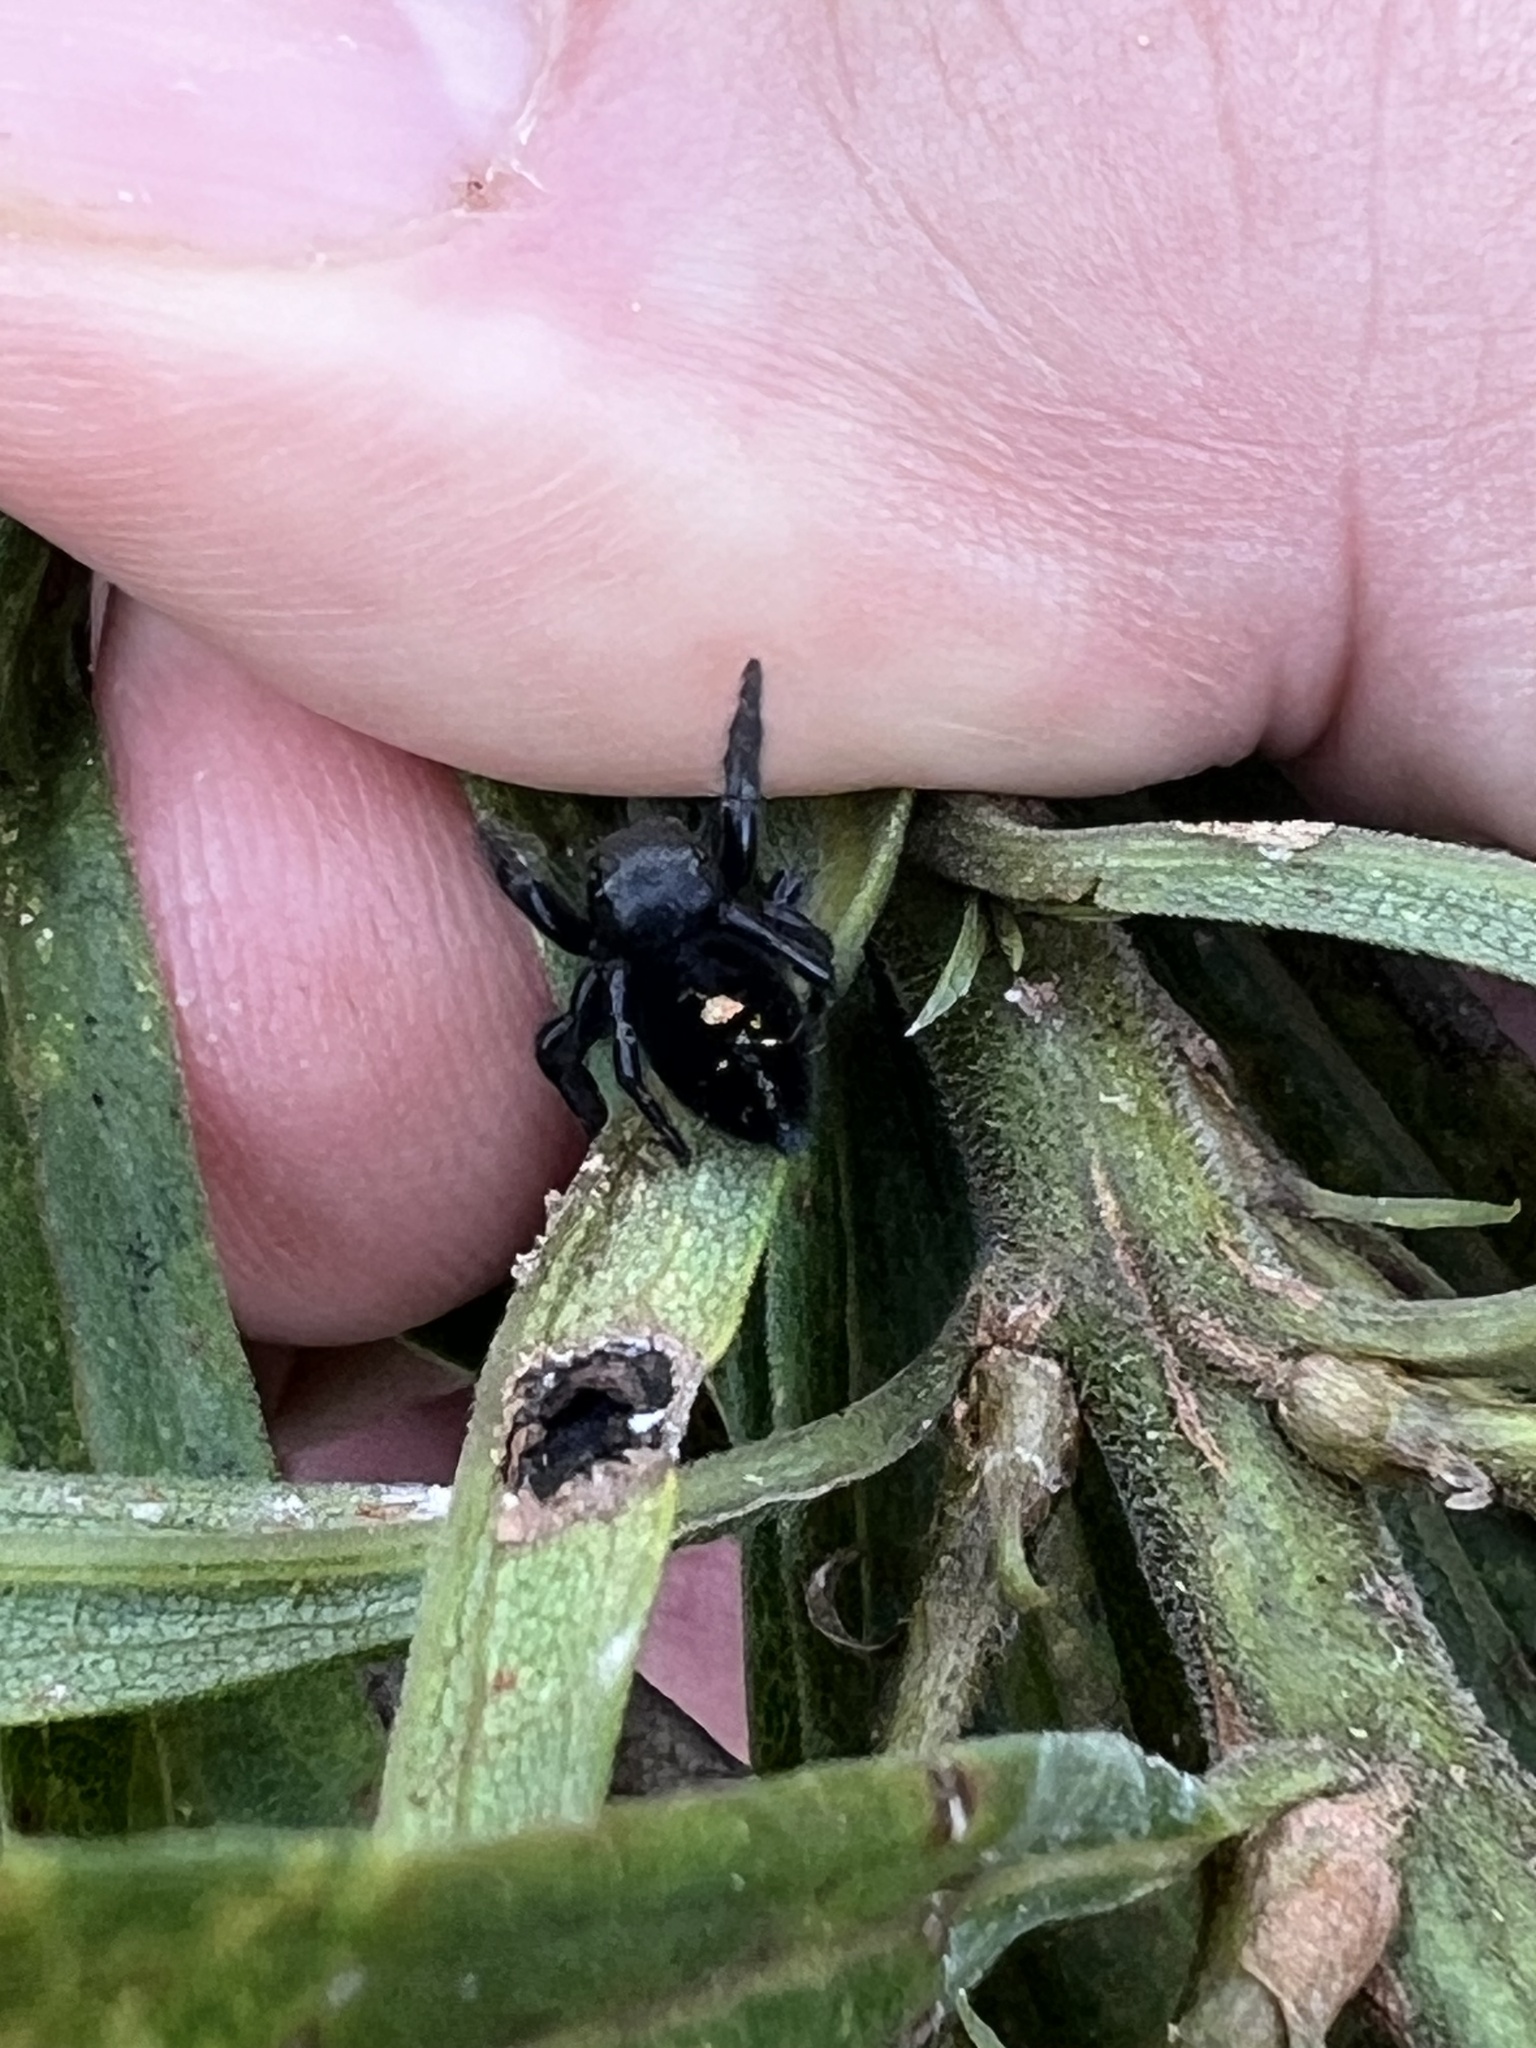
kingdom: Animalia
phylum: Arthropoda
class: Arachnida
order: Araneae
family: Salticidae
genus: Phidippus
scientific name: Phidippus audax
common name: Bold jumper
